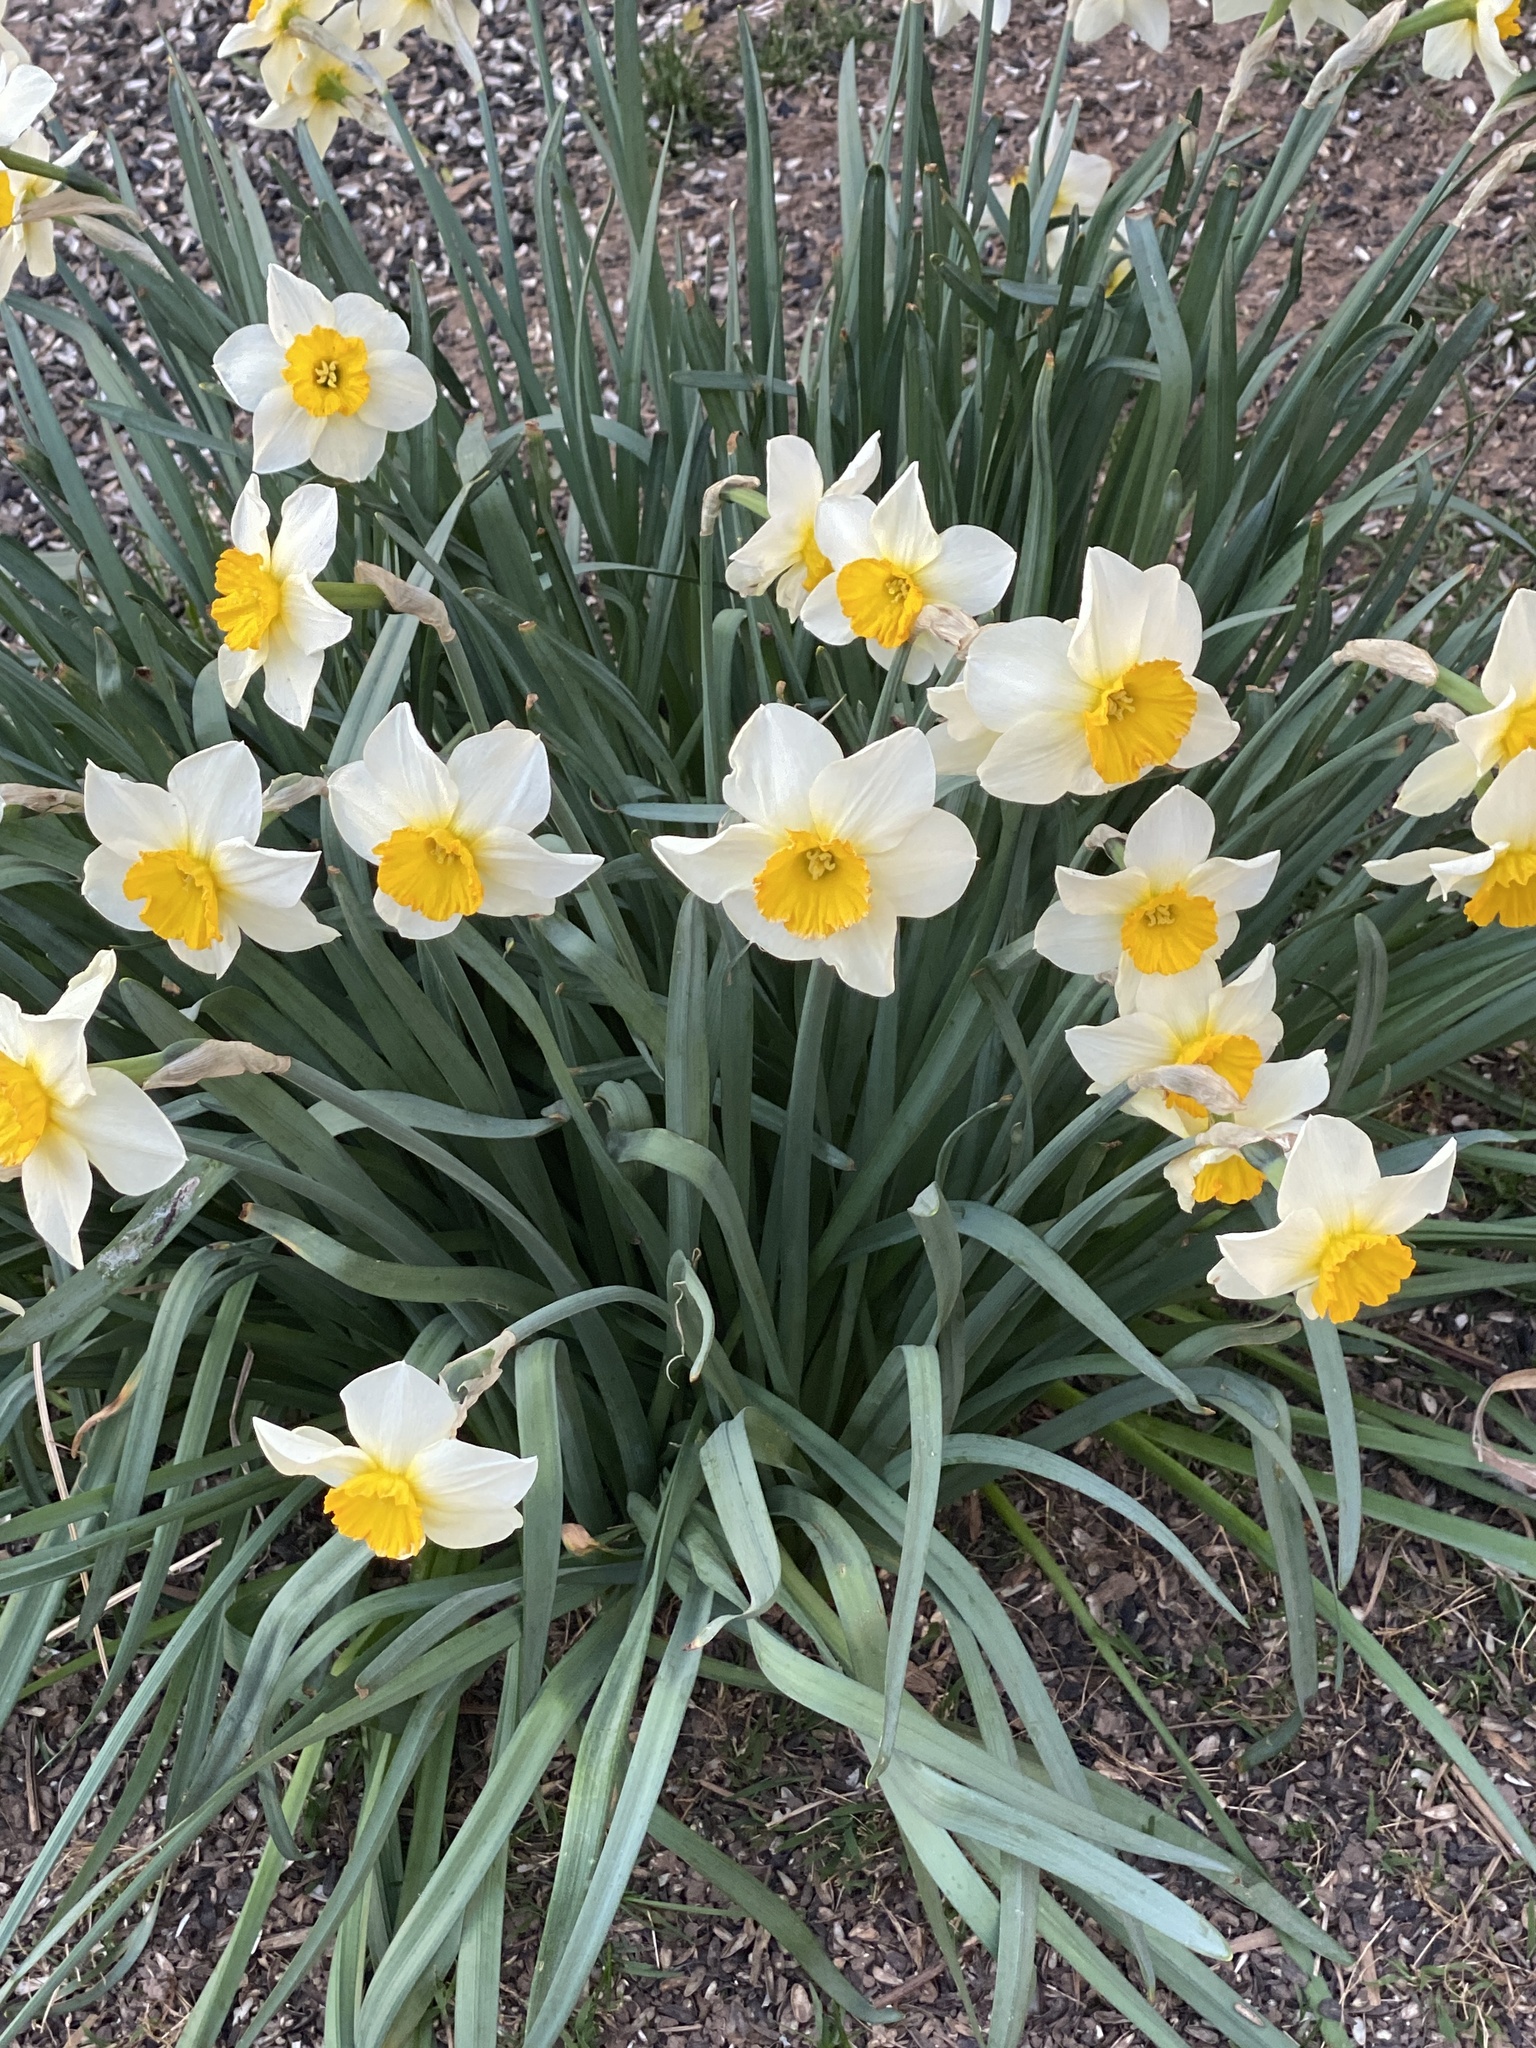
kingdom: Plantae
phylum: Tracheophyta
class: Liliopsida
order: Asparagales
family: Amaryllidaceae
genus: Narcissus
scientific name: Narcissus
